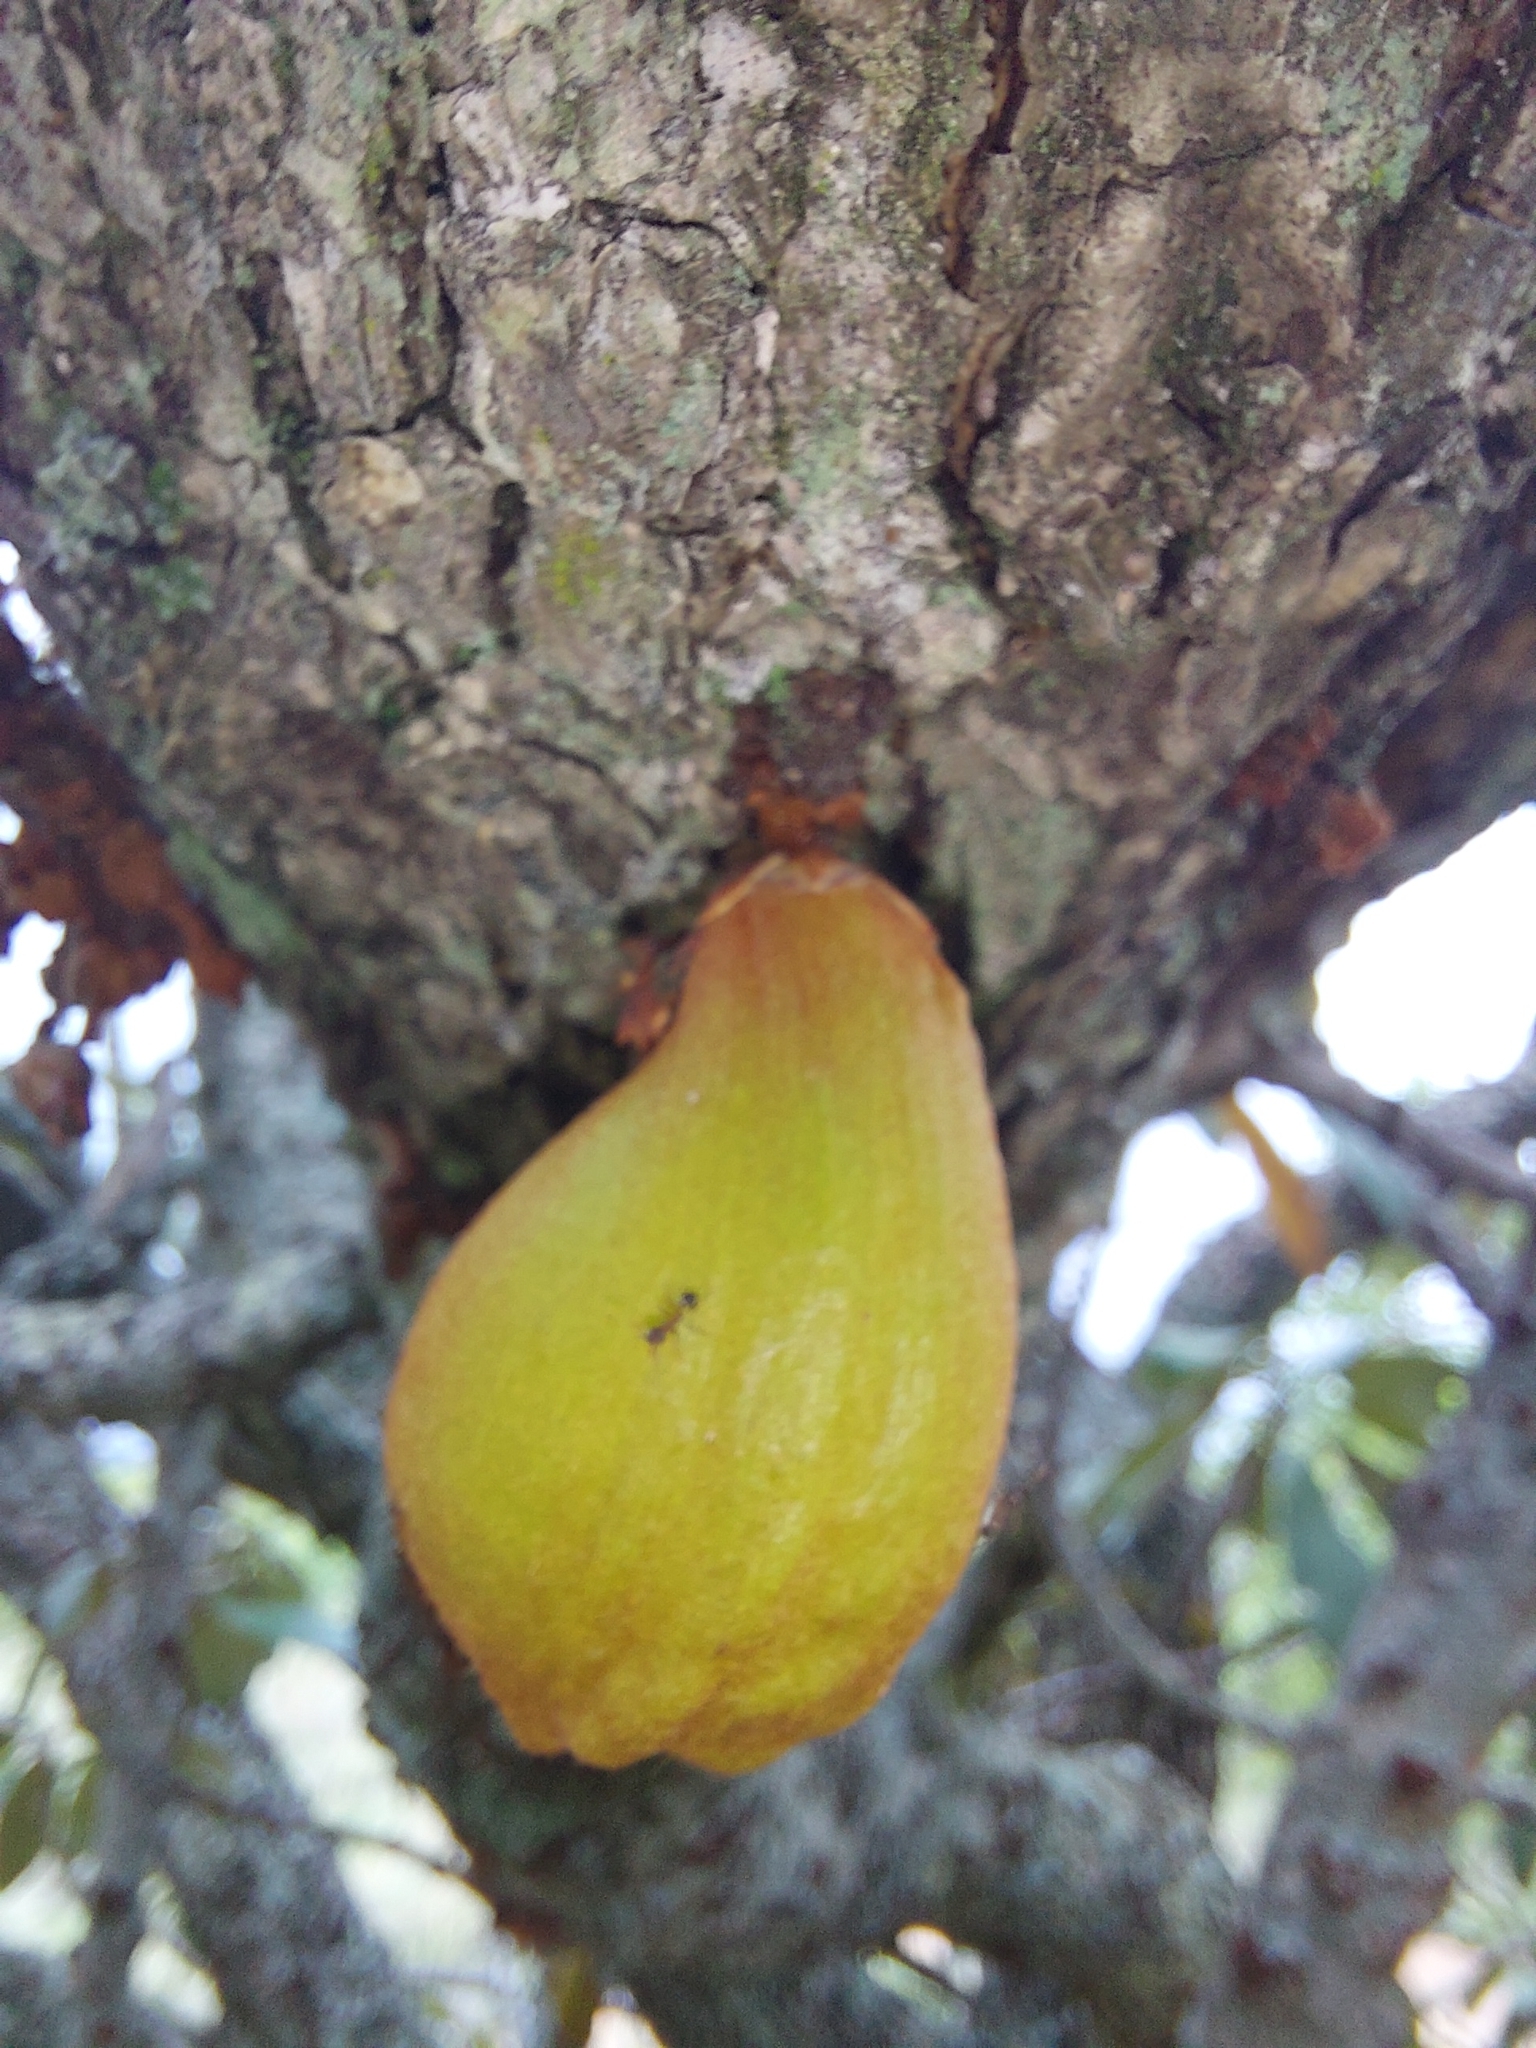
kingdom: Plantae
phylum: Tracheophyta
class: Magnoliopsida
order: Ericales
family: Sapotaceae
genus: Englerophytum
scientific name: Englerophytum magalismontanum
